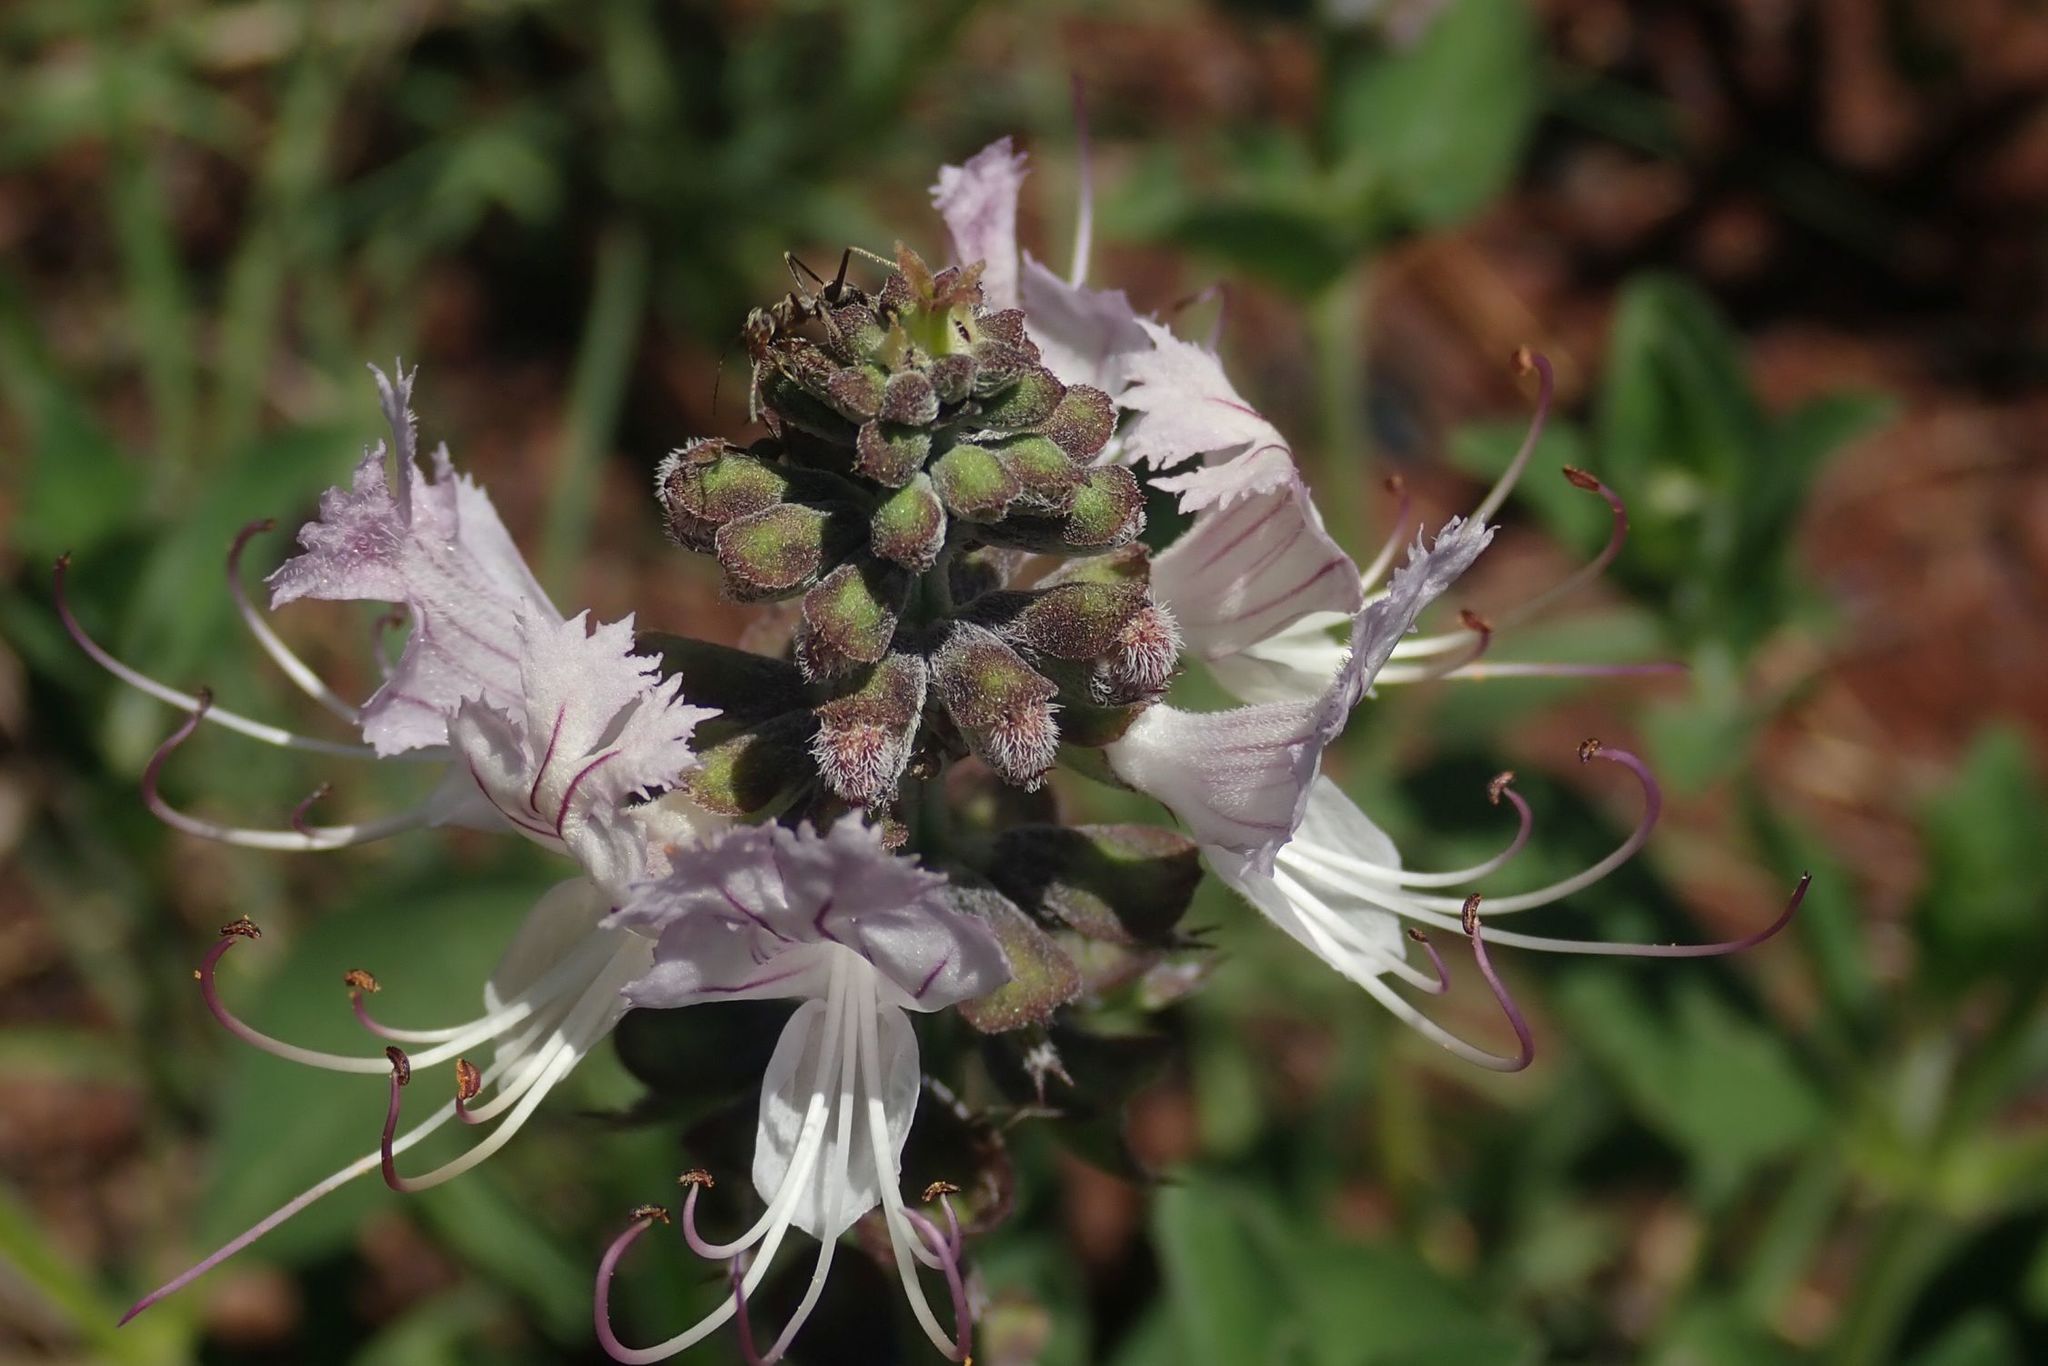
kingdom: Plantae
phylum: Tracheophyta
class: Magnoliopsida
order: Lamiales
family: Lamiaceae
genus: Ocimum
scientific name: Ocimum obovatum
